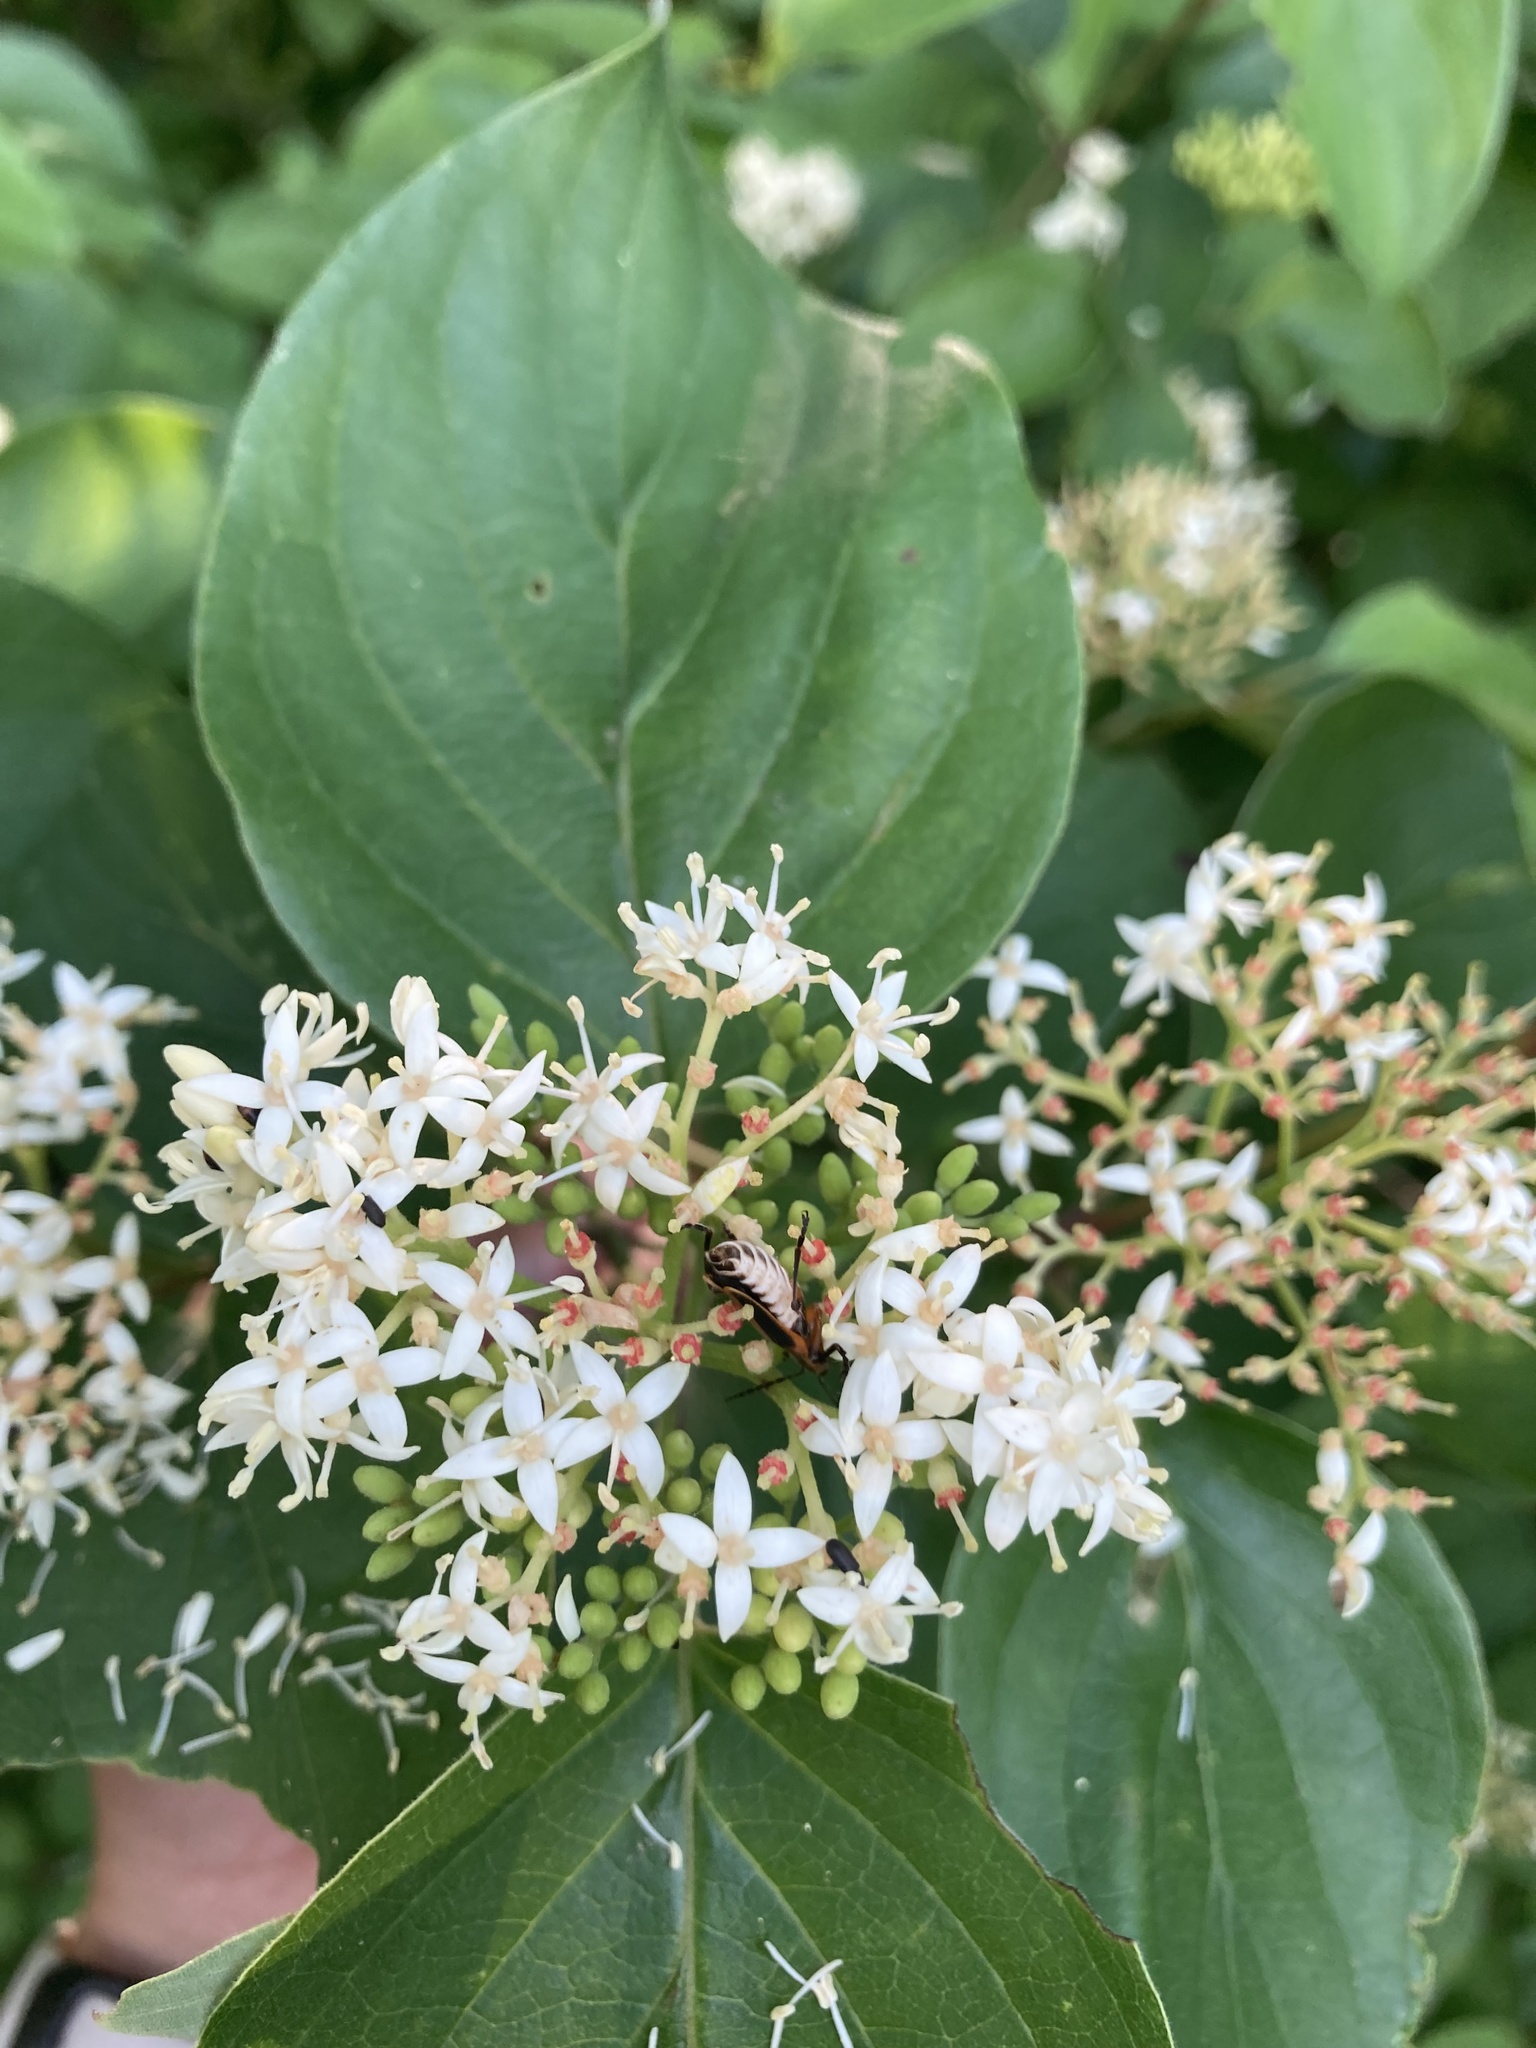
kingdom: Animalia
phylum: Arthropoda
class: Insecta
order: Coleoptera
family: Cantharidae
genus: Chauliognathus
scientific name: Chauliognathus marginatus
